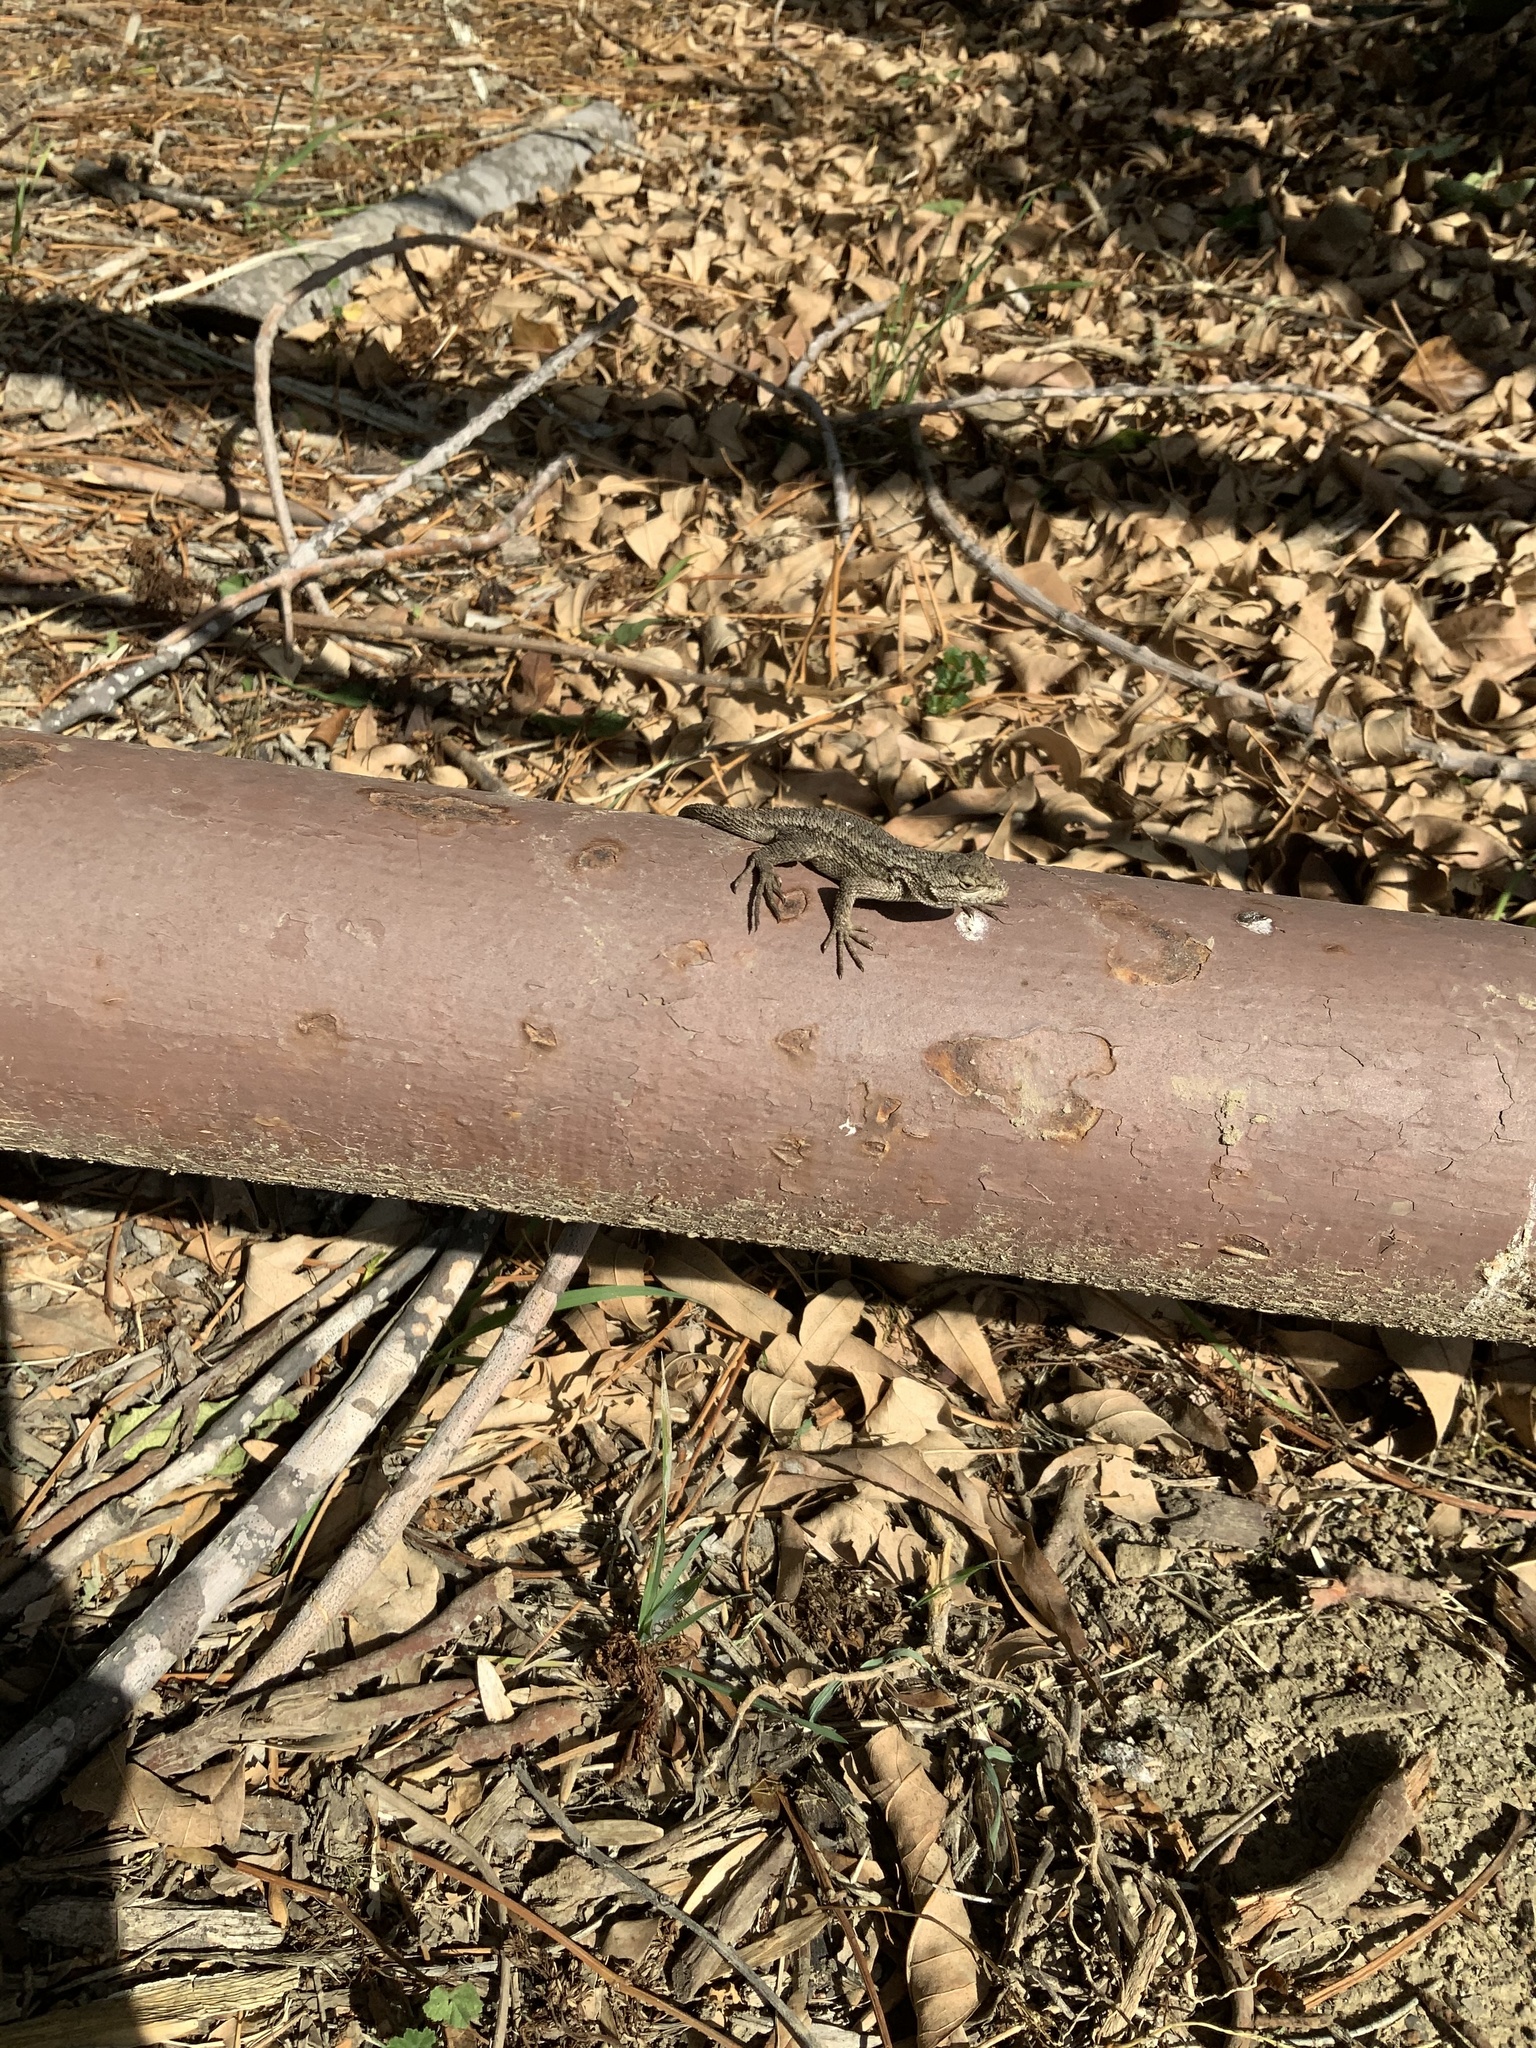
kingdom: Animalia
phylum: Chordata
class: Squamata
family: Phrynosomatidae
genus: Sceloporus
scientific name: Sceloporus occidentalis
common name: Western fence lizard
